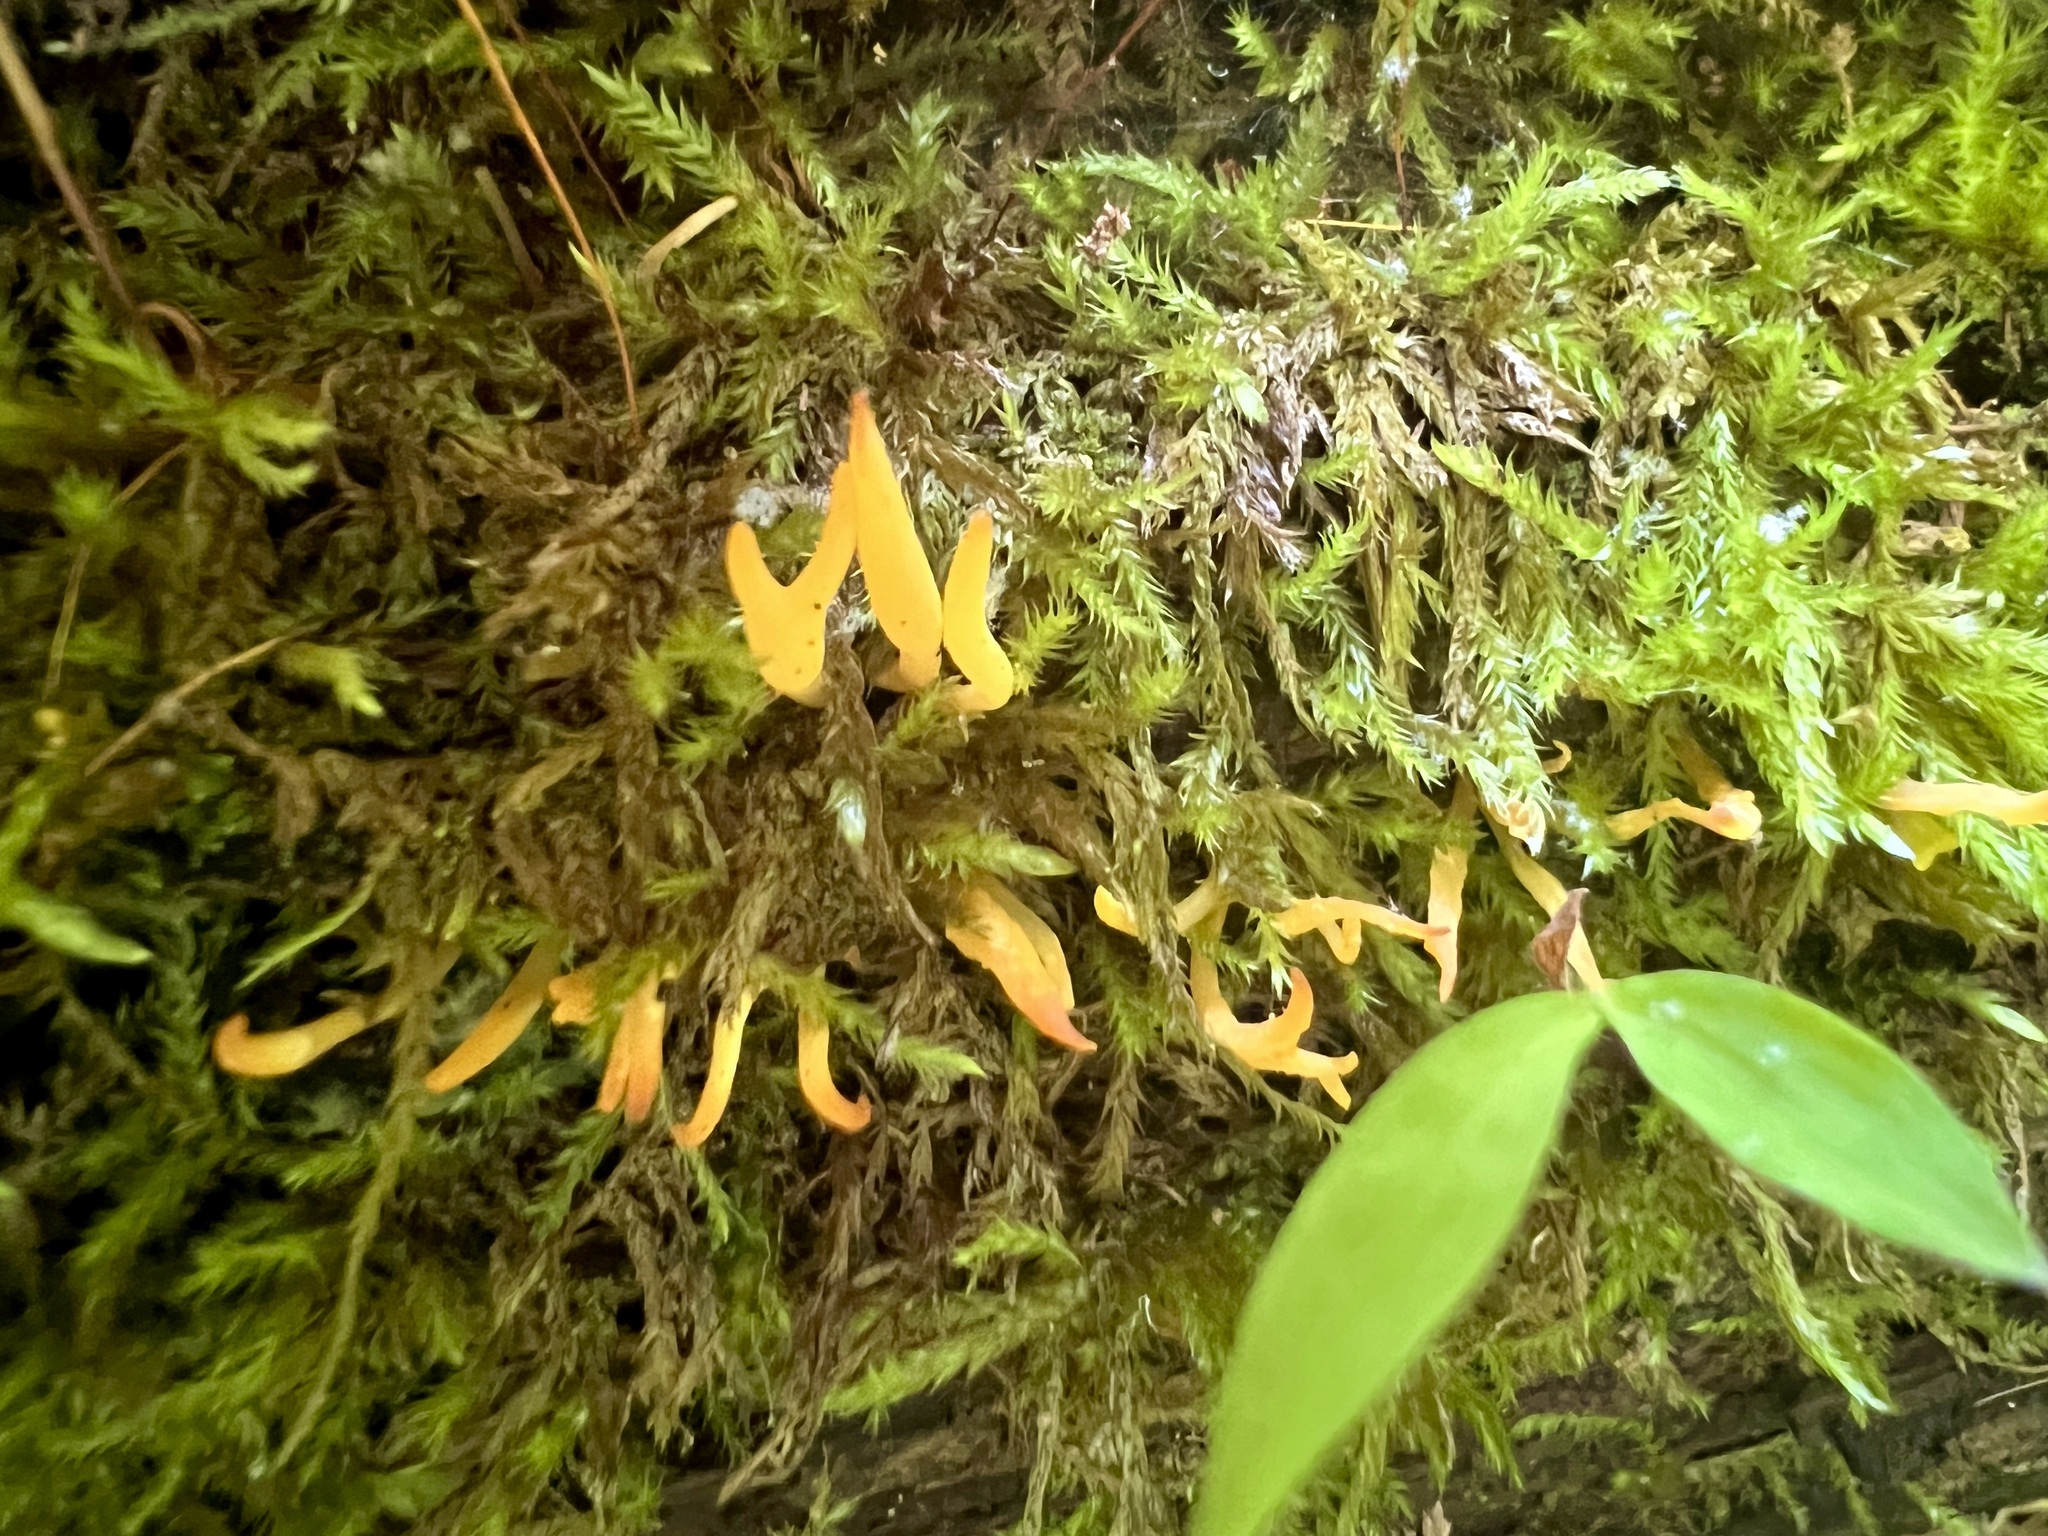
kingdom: Fungi
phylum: Basidiomycota
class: Dacrymycetes
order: Dacrymycetales
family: Dacrymycetaceae
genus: Calocera
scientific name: Calocera cornea
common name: Small stagshorn
